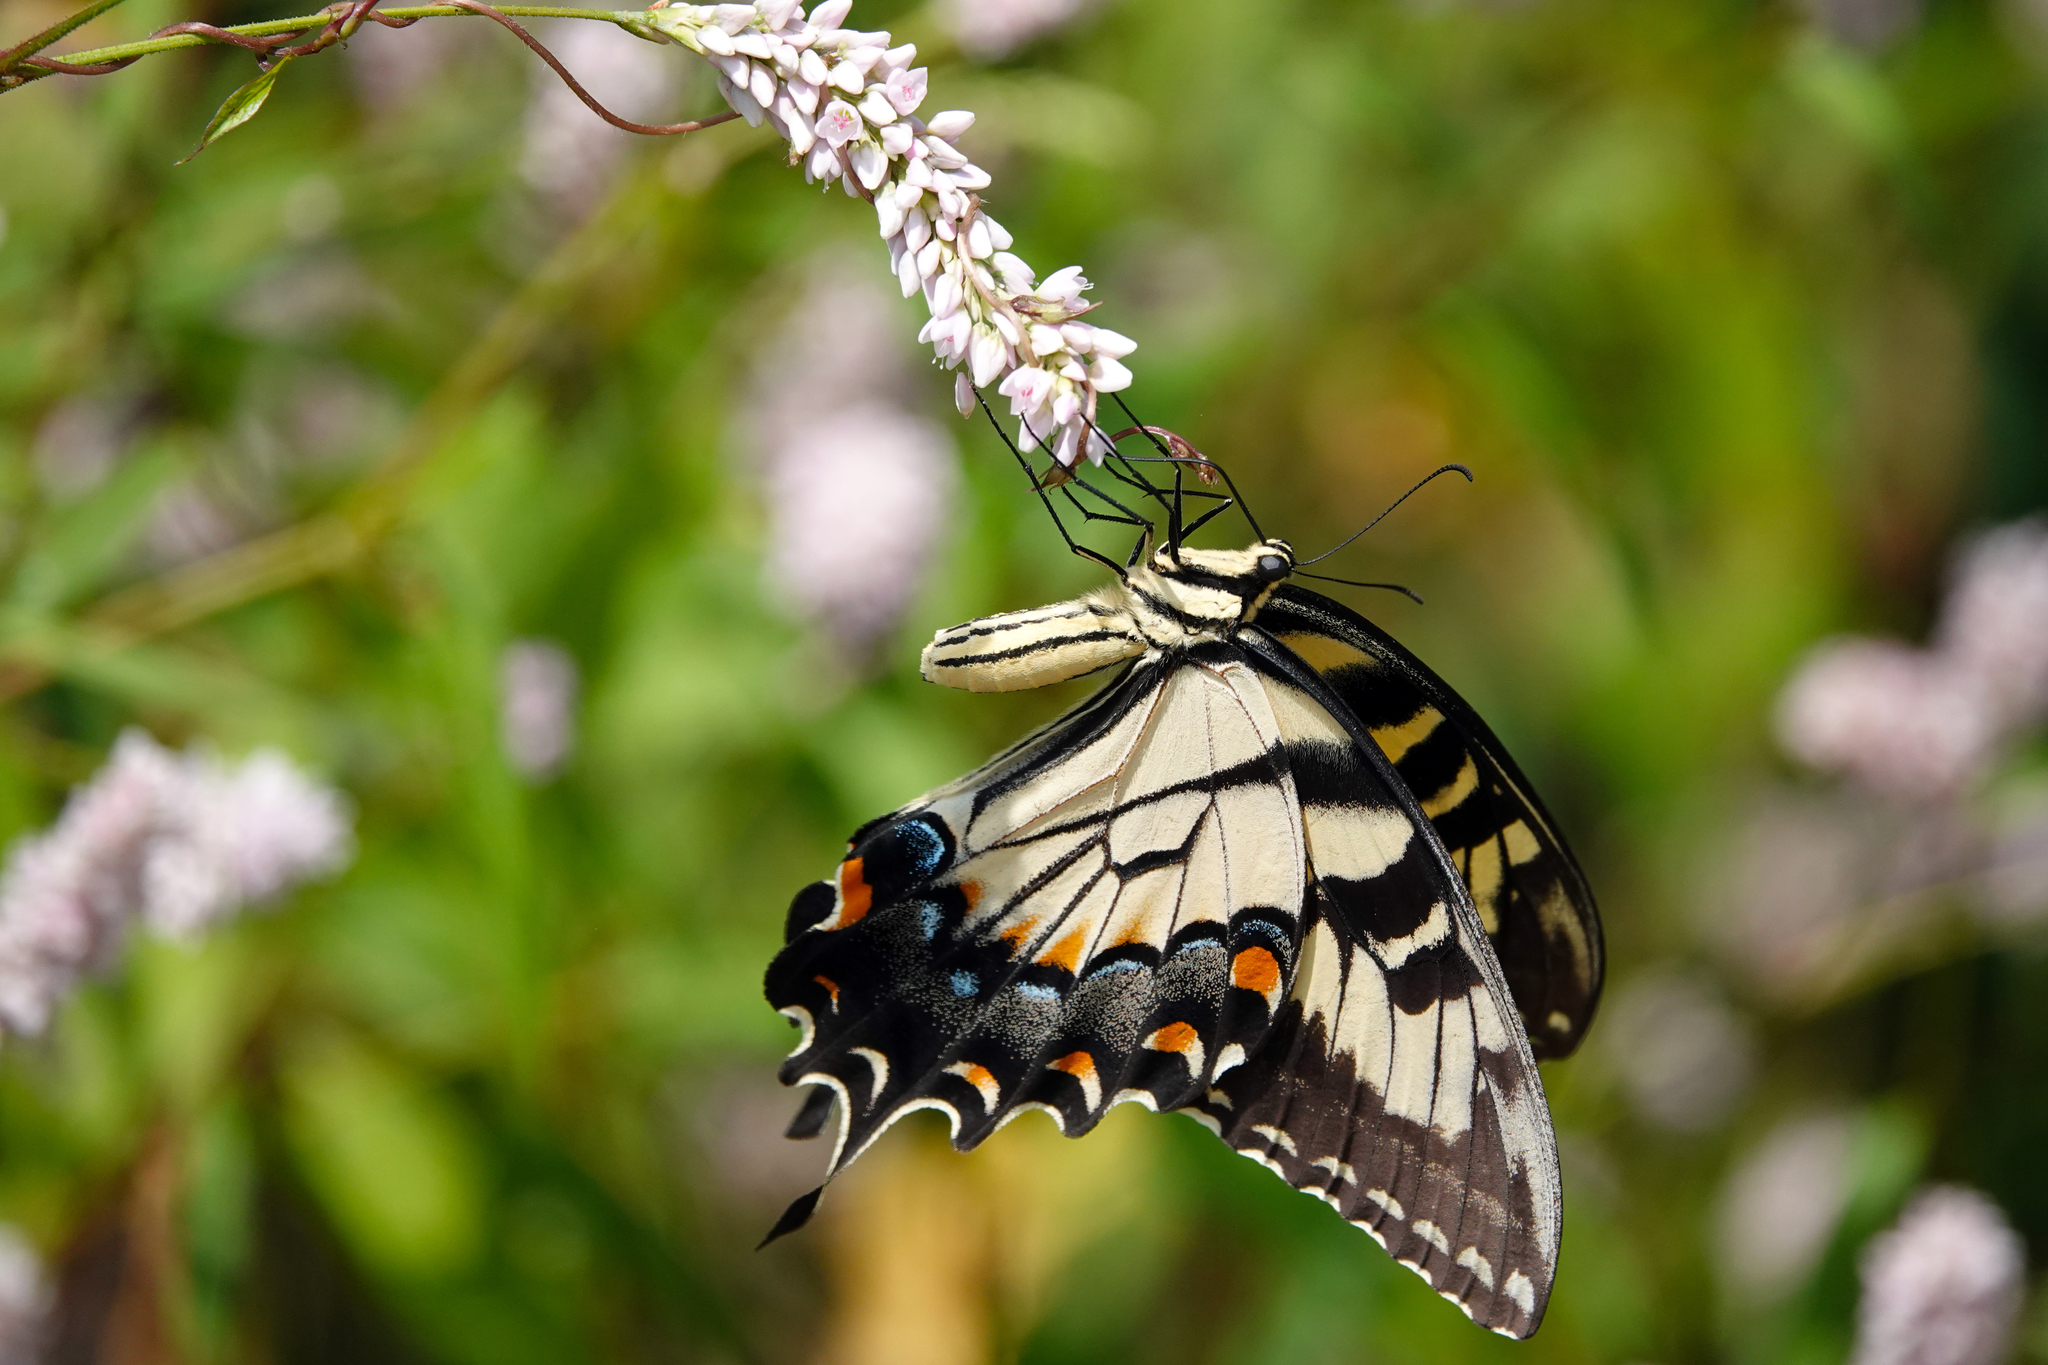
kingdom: Animalia
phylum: Arthropoda
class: Insecta
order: Lepidoptera
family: Papilionidae
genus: Papilio
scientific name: Papilio glaucus
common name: Tiger swallowtail
